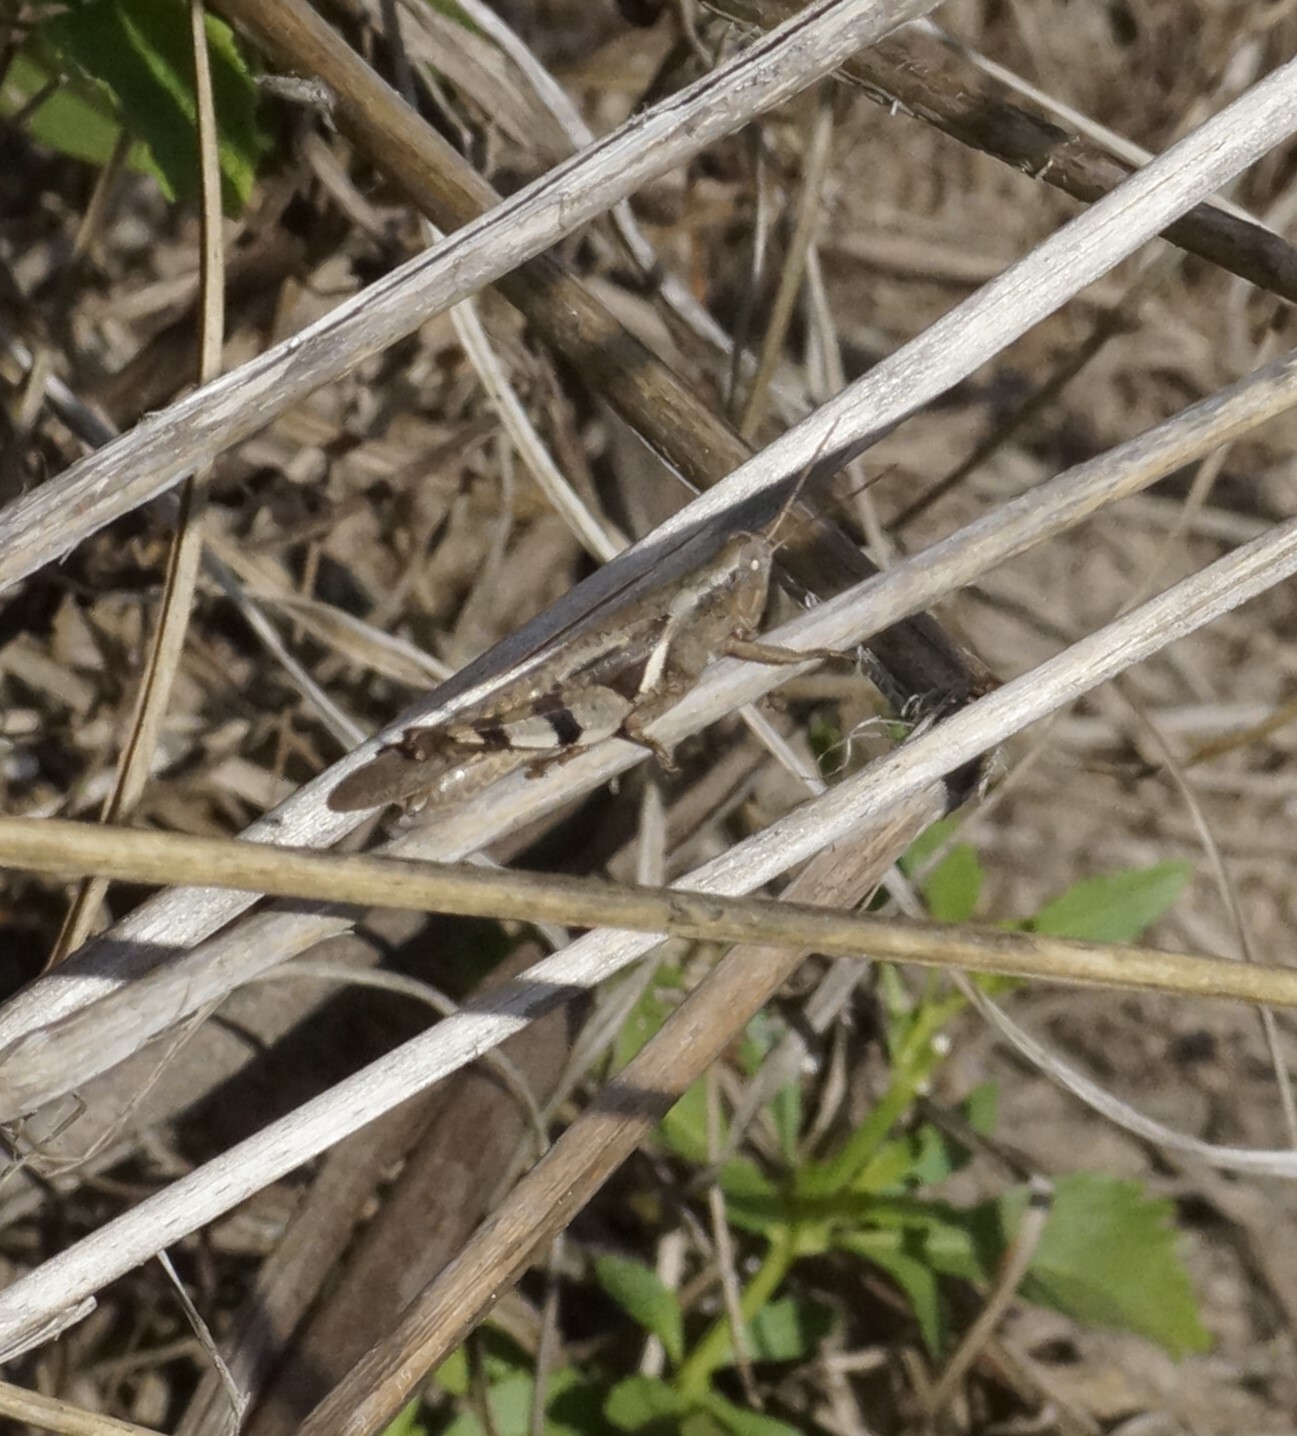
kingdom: Animalia
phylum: Arthropoda
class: Insecta
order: Orthoptera
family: Acrididae
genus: Stenocatantops
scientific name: Stenocatantops angustifrons
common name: Common tropical sharptail
